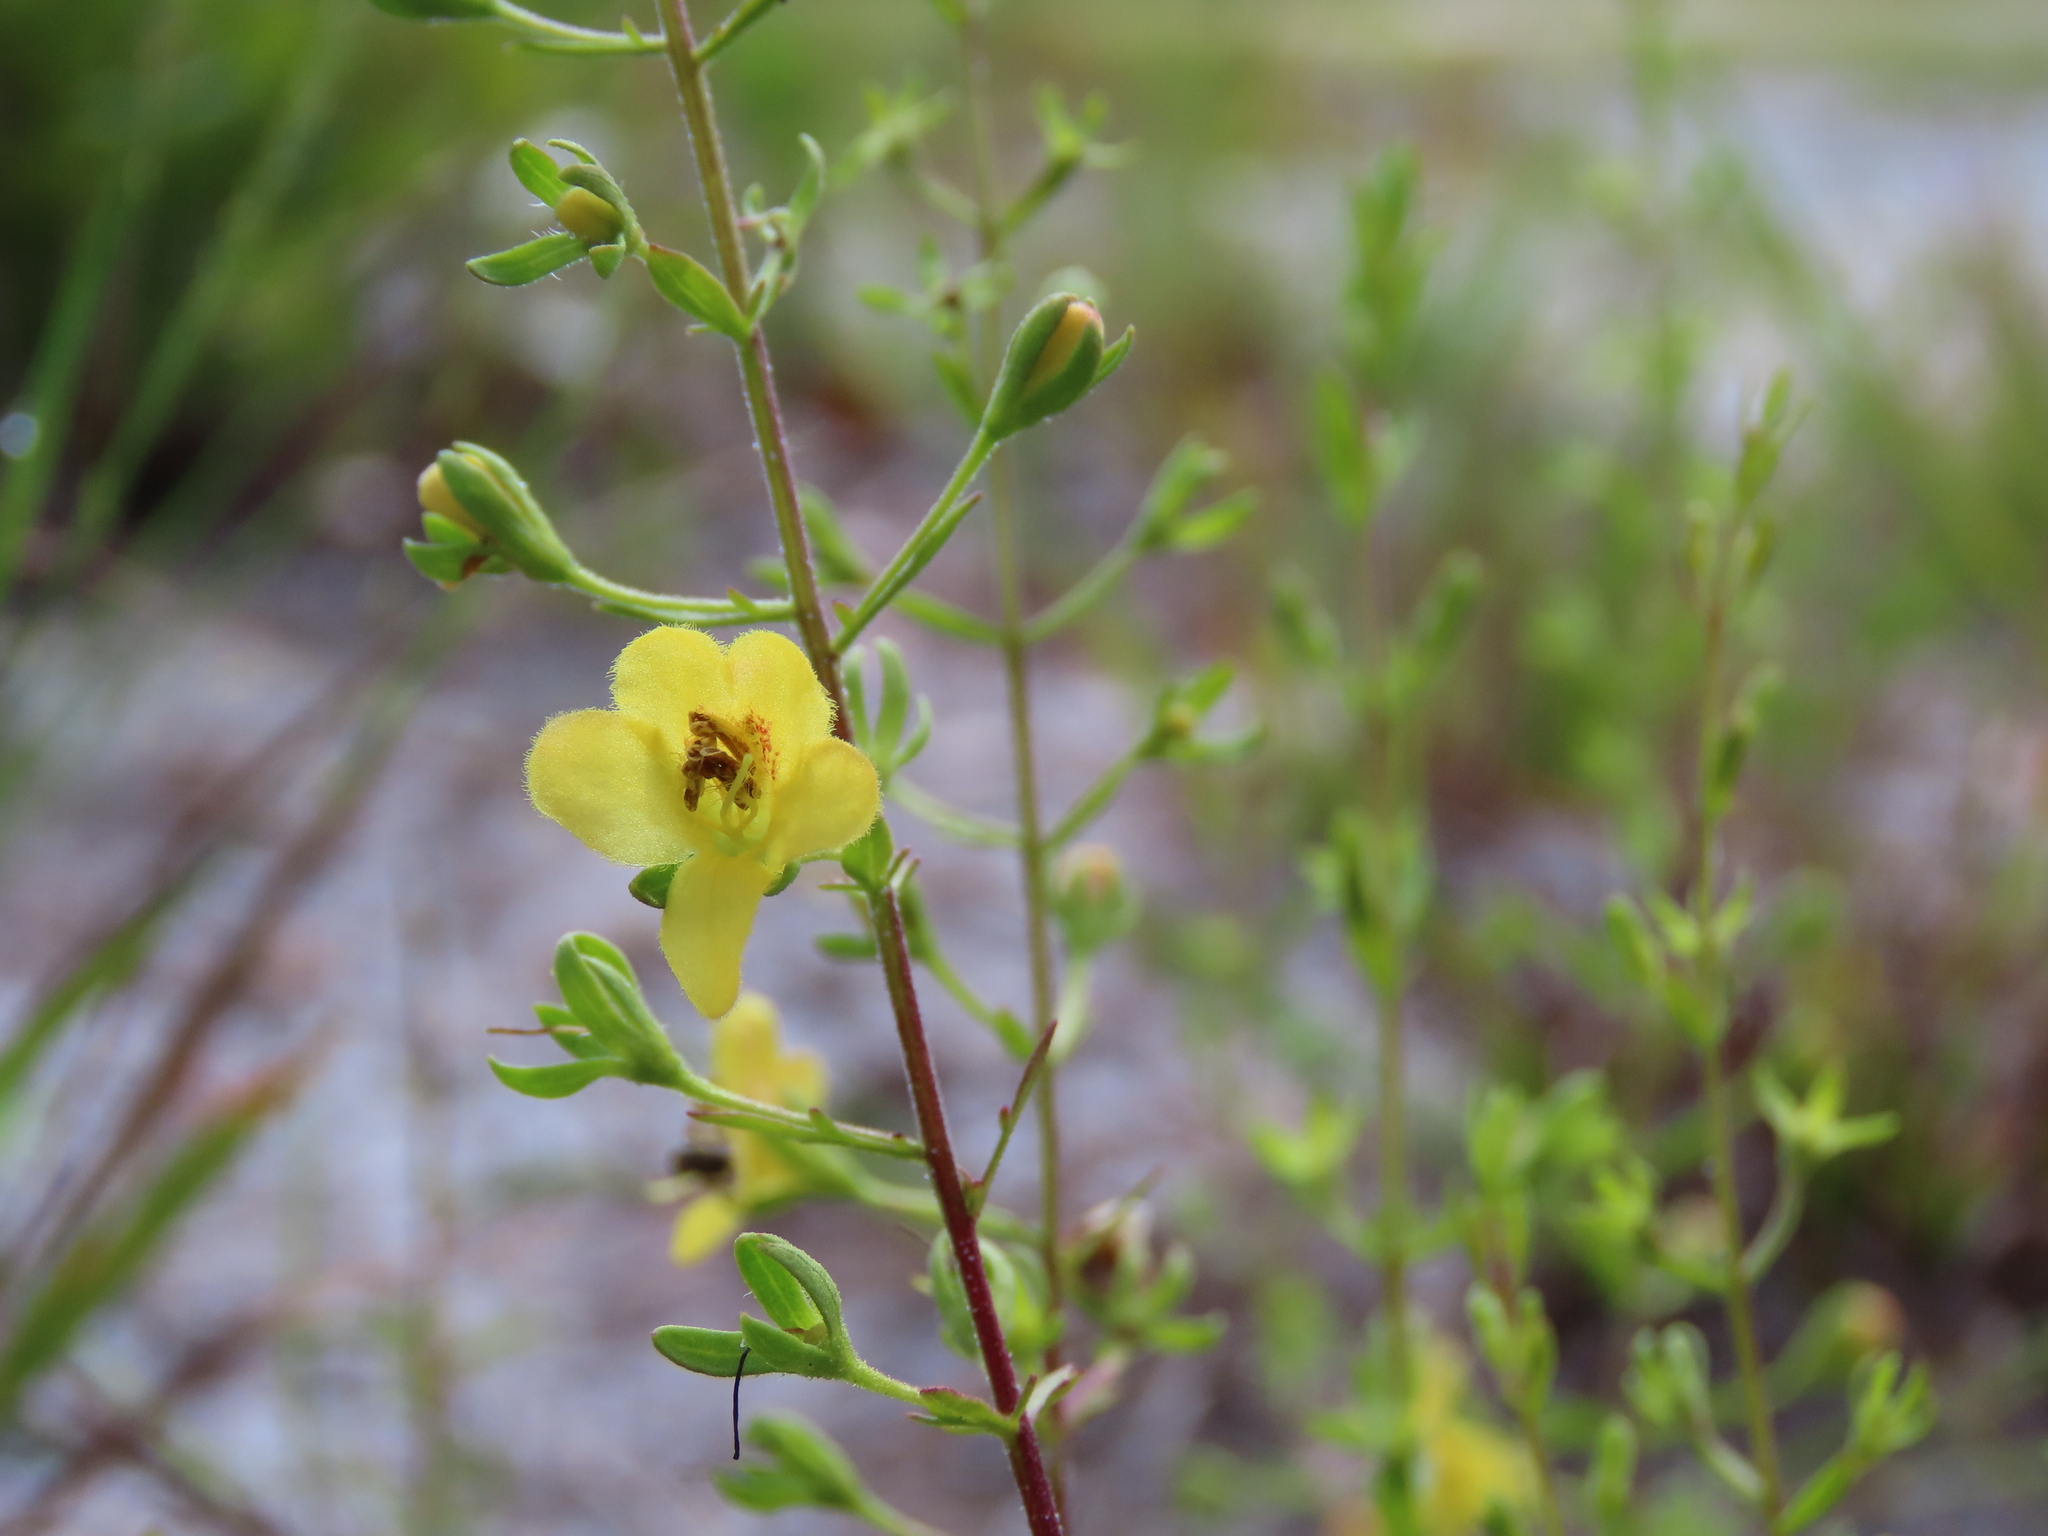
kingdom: Plantae
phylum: Tracheophyta
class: Magnoliopsida
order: Lamiales
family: Orobanchaceae
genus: Seymeria
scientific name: Seymeria pectinata
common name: Piedmont black-senna
